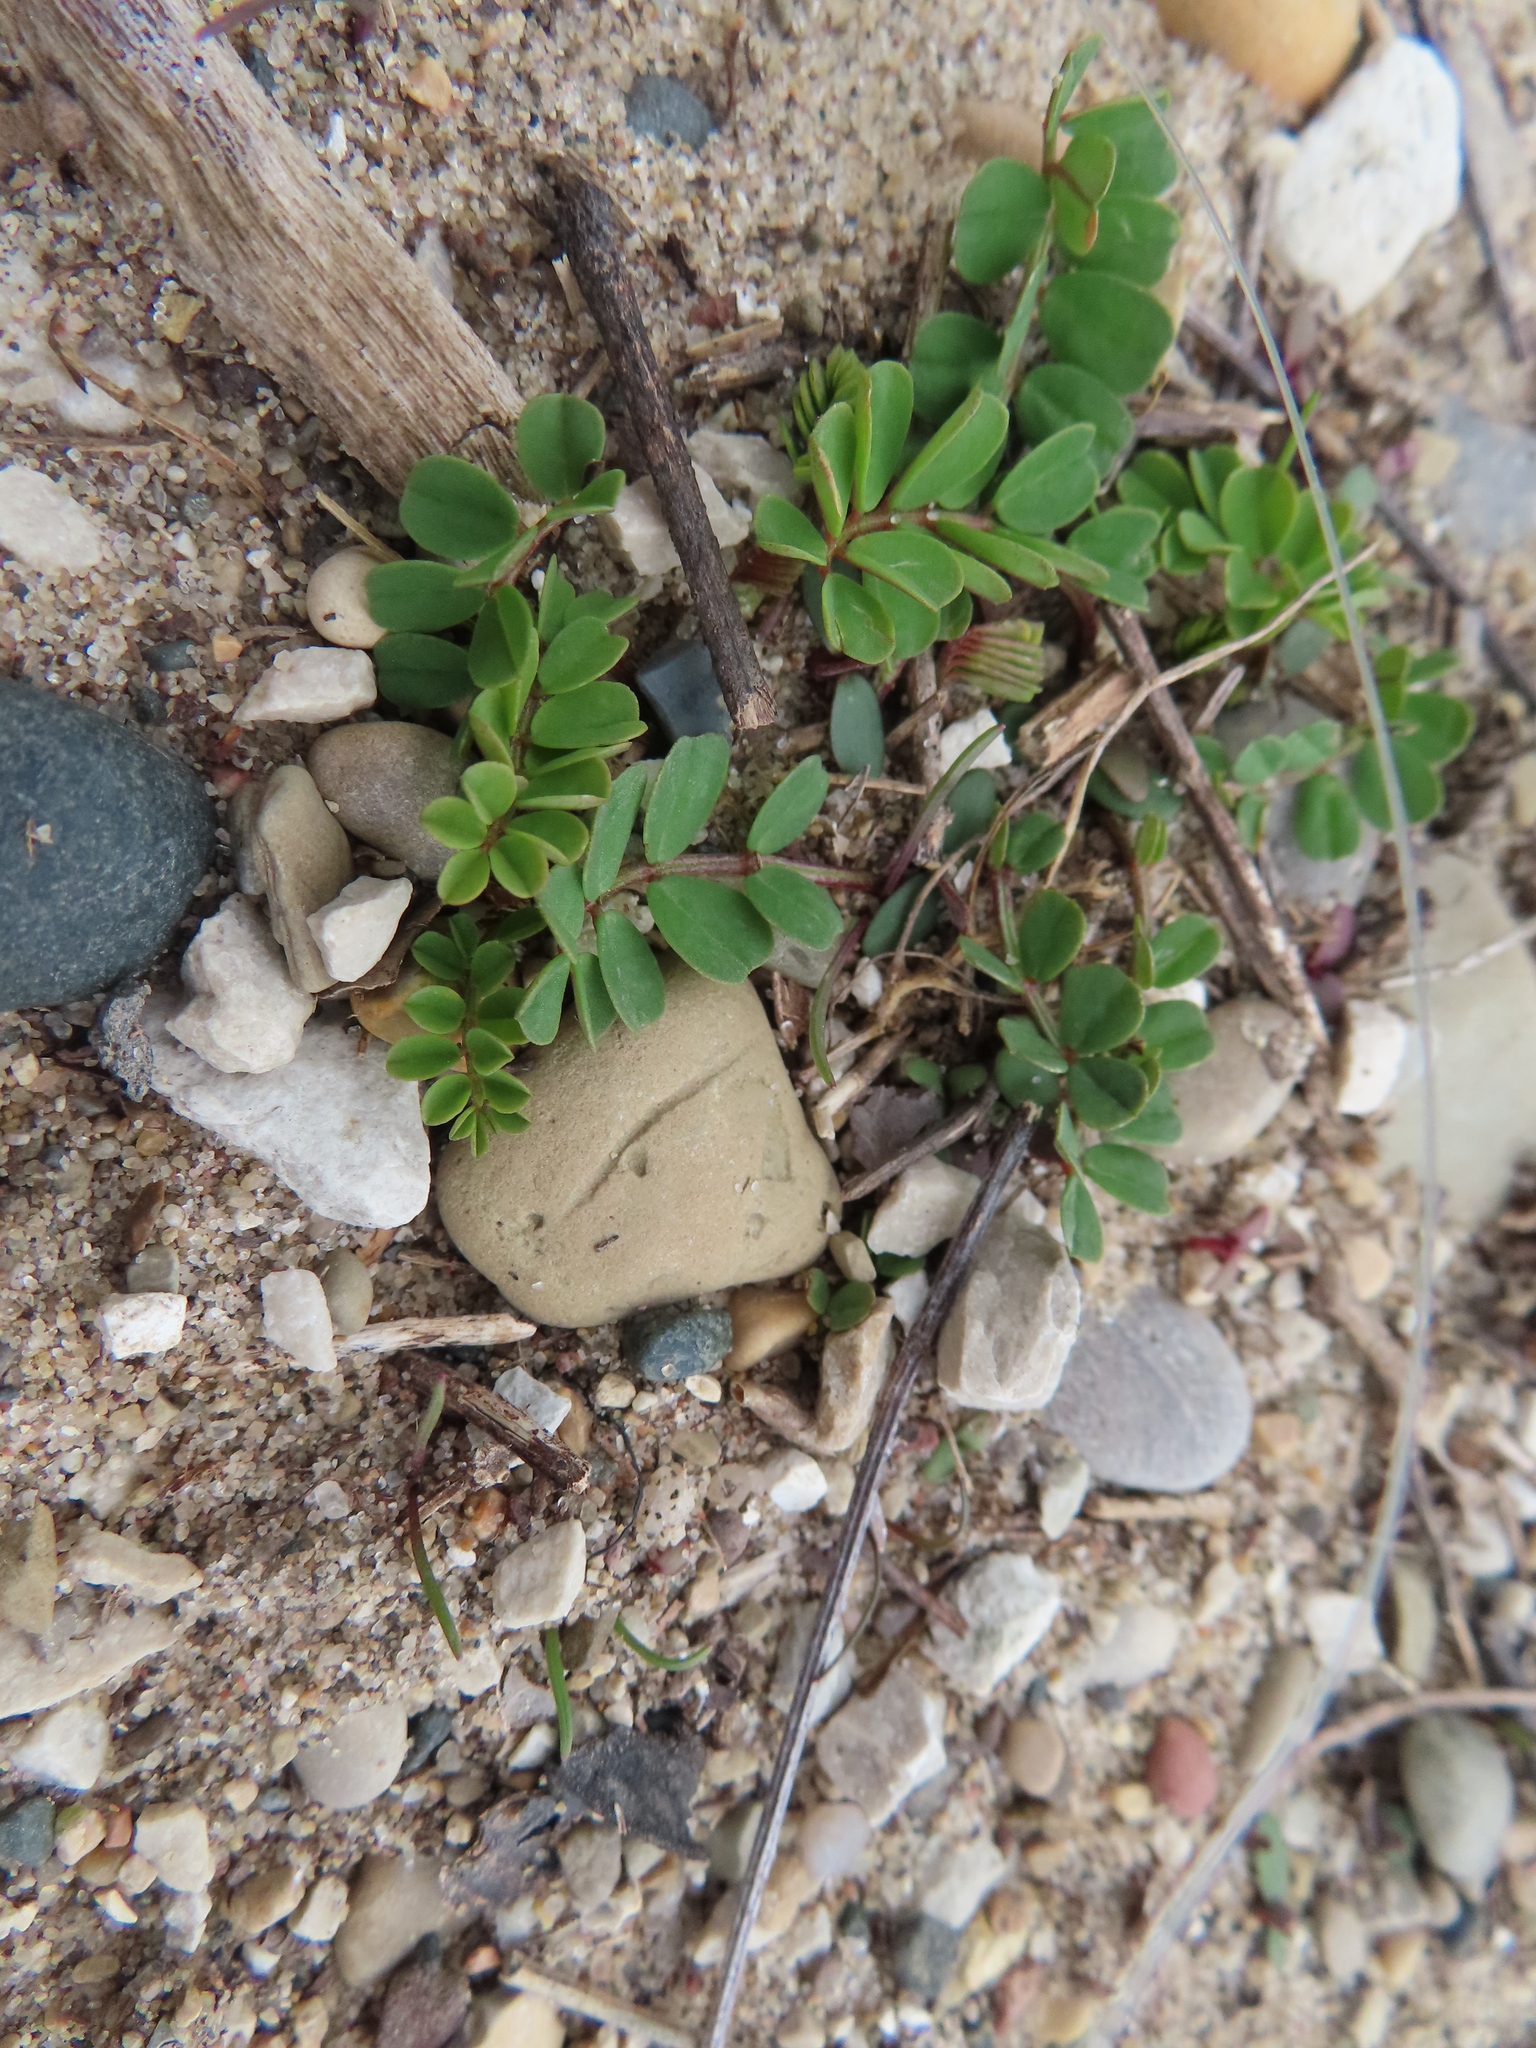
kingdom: Plantae
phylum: Tracheophyta
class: Magnoliopsida
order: Fabales
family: Fabaceae
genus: Coronilla
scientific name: Coronilla varia
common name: Crownvetch
